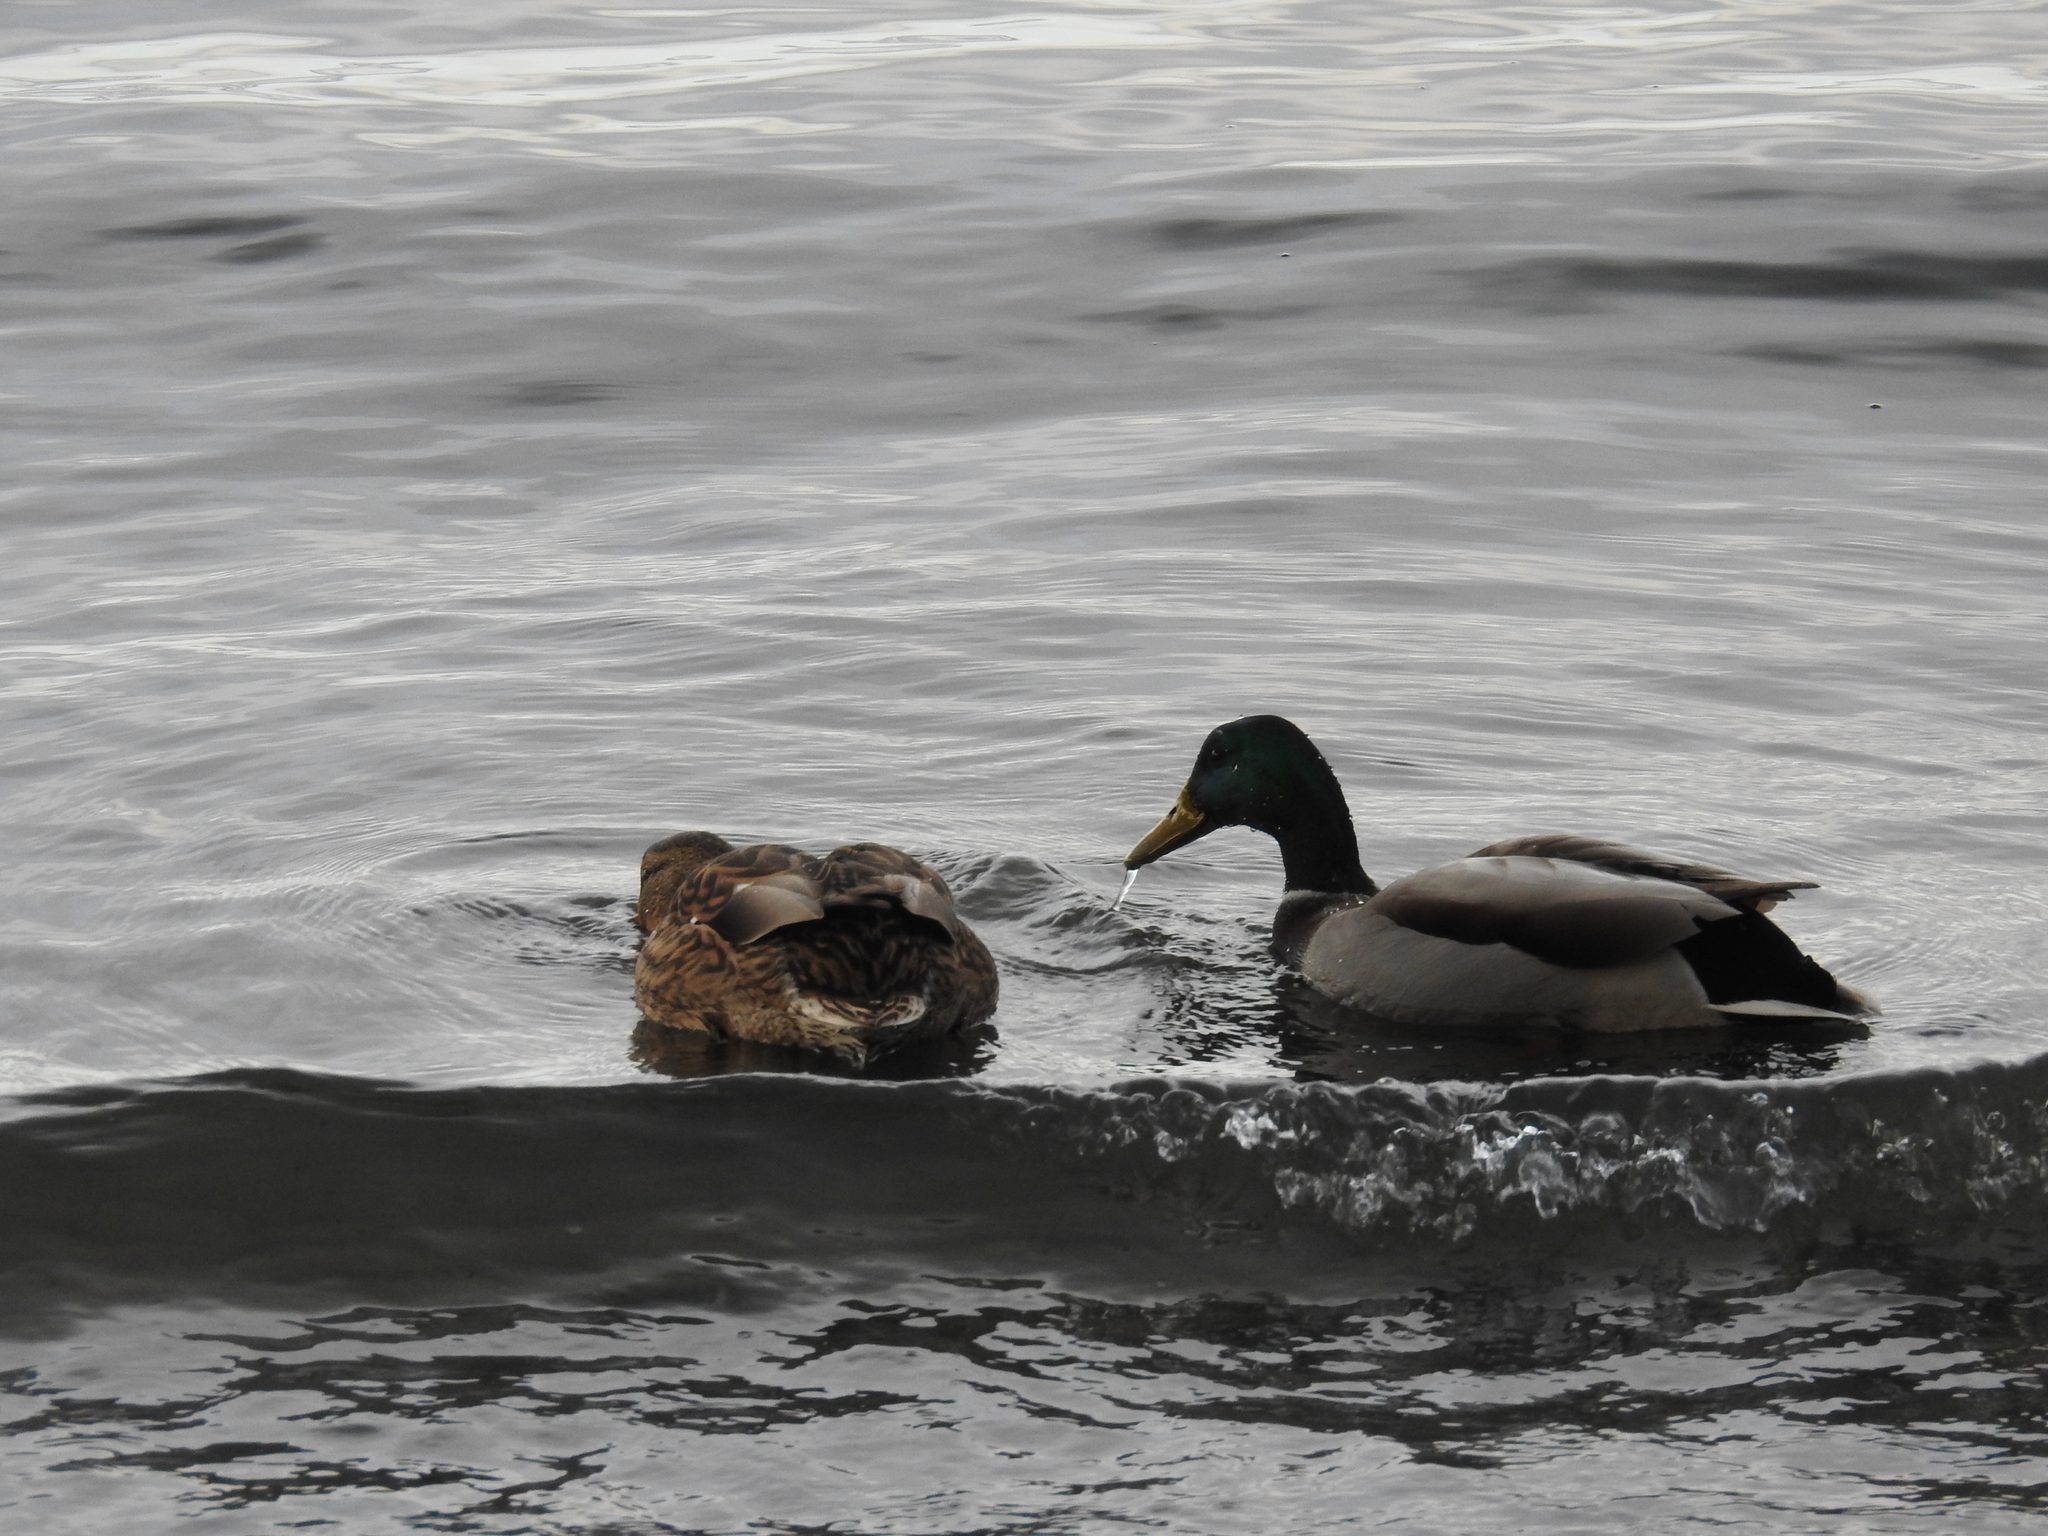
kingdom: Animalia
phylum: Chordata
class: Aves
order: Anseriformes
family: Anatidae
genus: Anas
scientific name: Anas platyrhynchos
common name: Mallard
